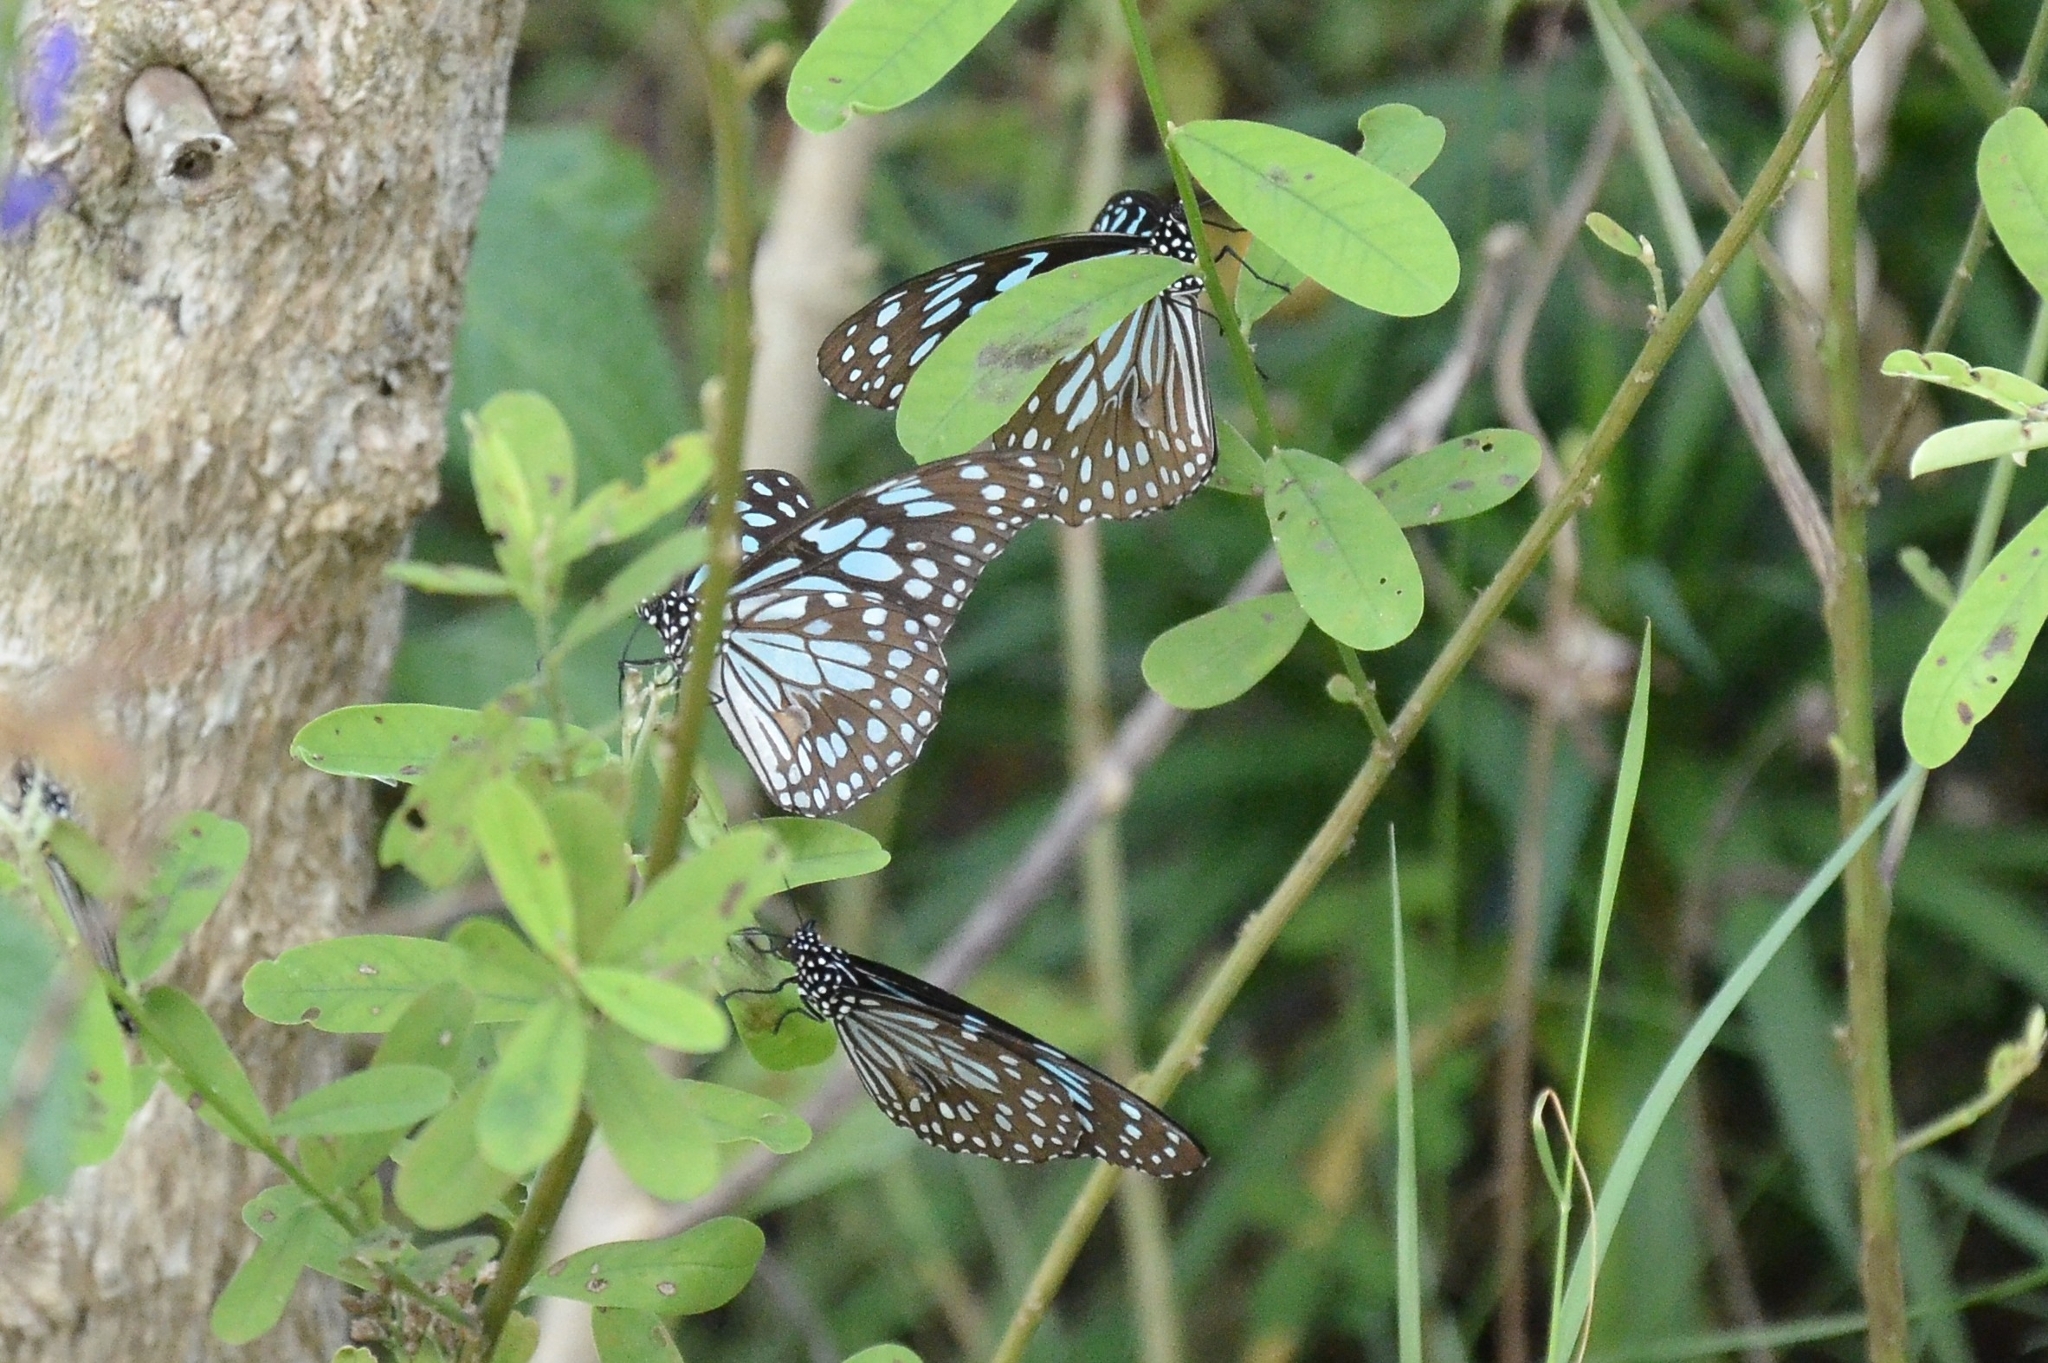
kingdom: Animalia
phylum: Arthropoda
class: Insecta
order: Lepidoptera
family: Nymphalidae
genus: Tirumala
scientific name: Tirumala limniace
